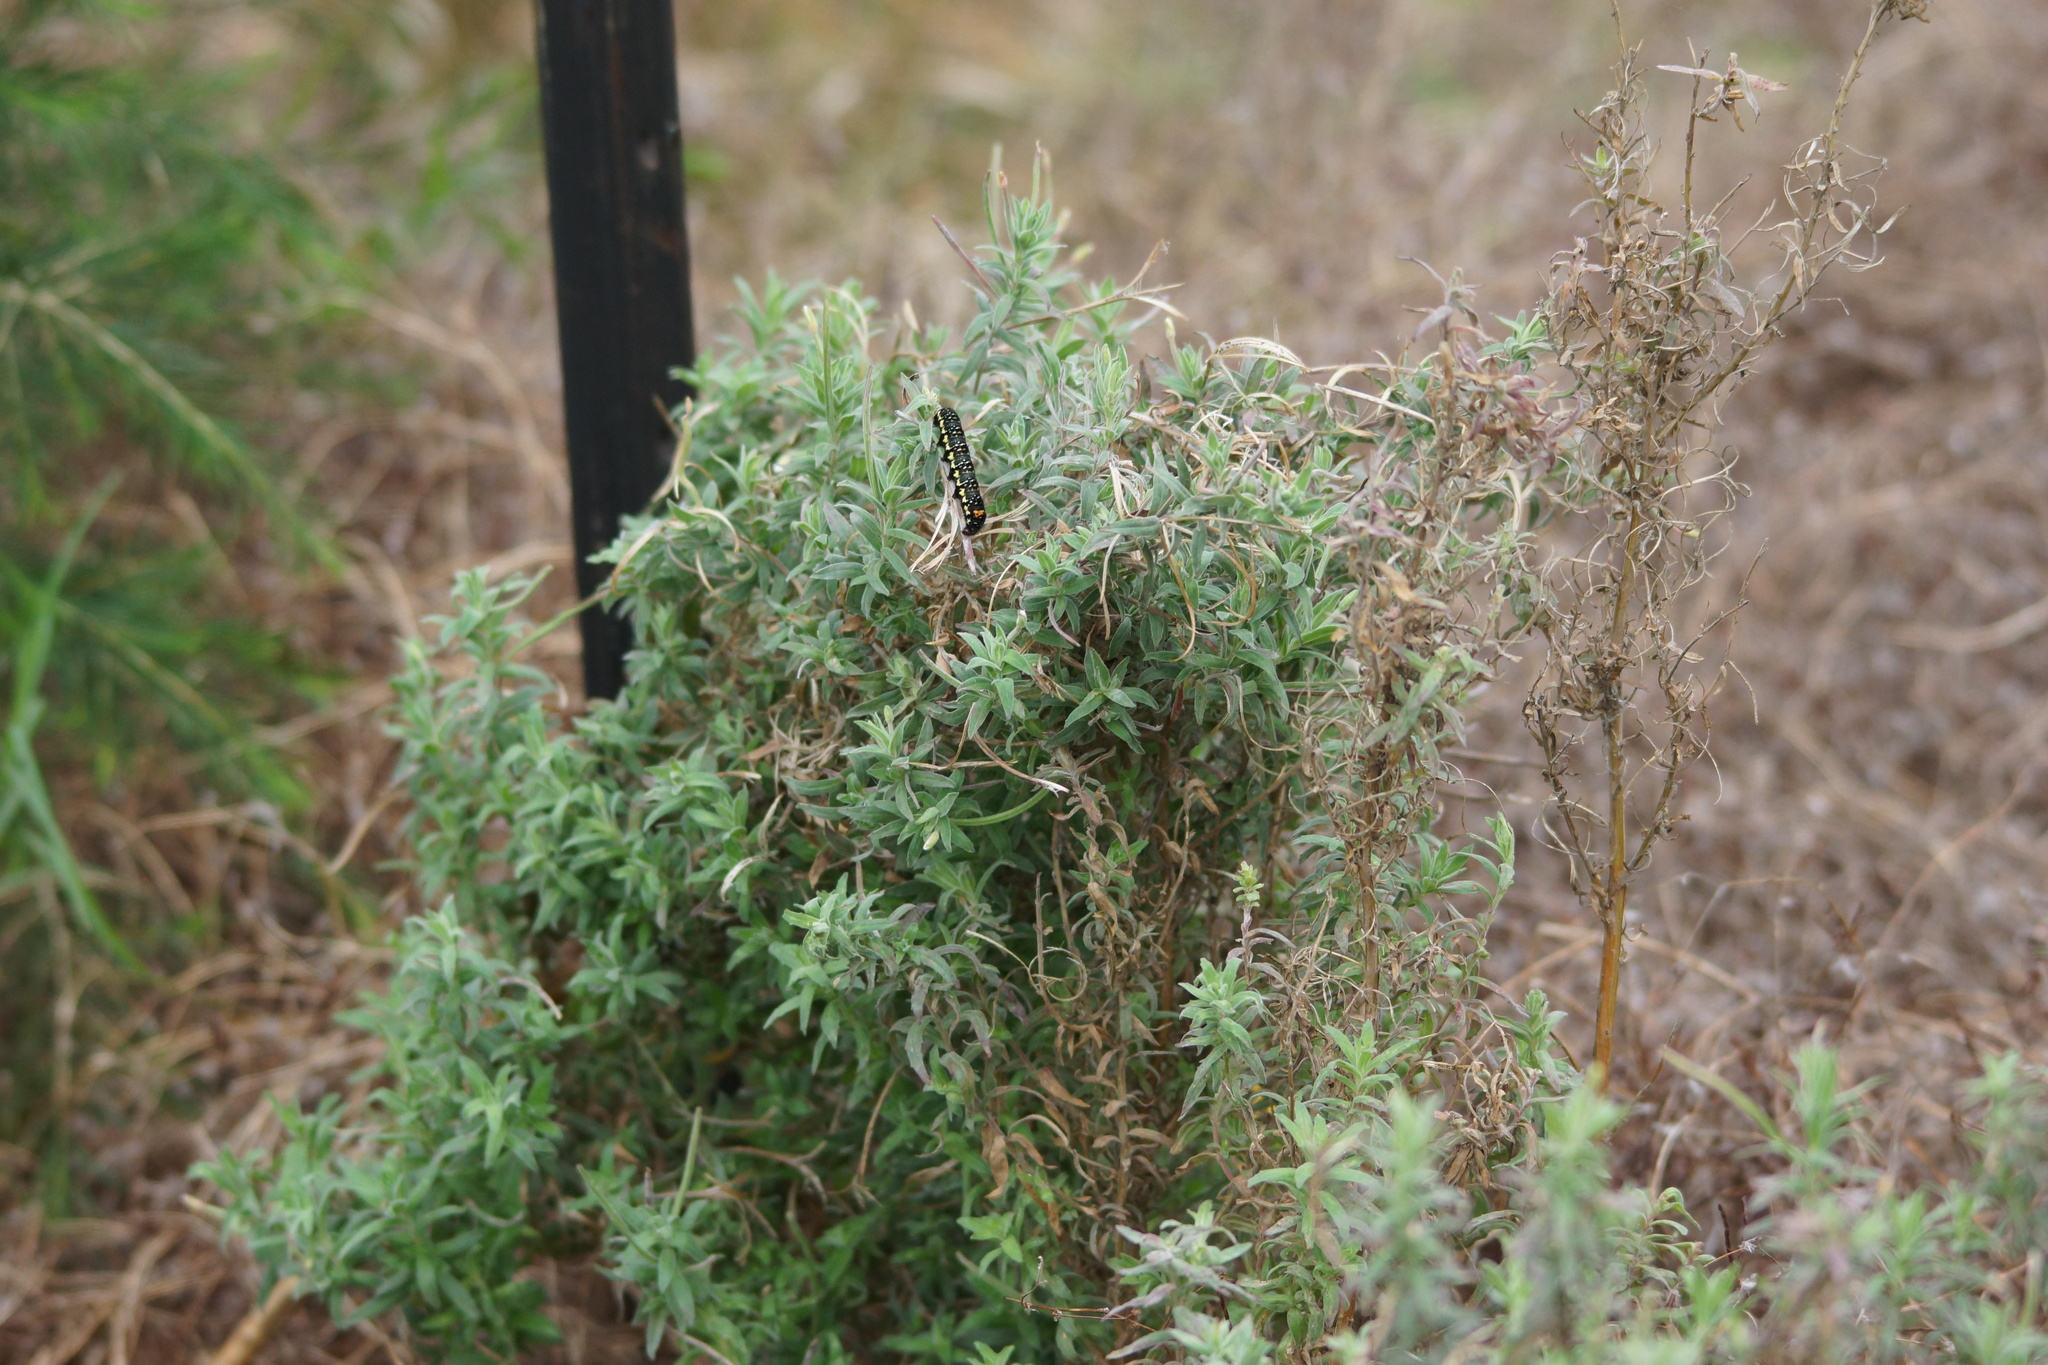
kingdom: Animalia
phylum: Arthropoda
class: Insecta
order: Lepidoptera
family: Noctuidae
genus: Phalaenoides
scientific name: Phalaenoides tristifica
